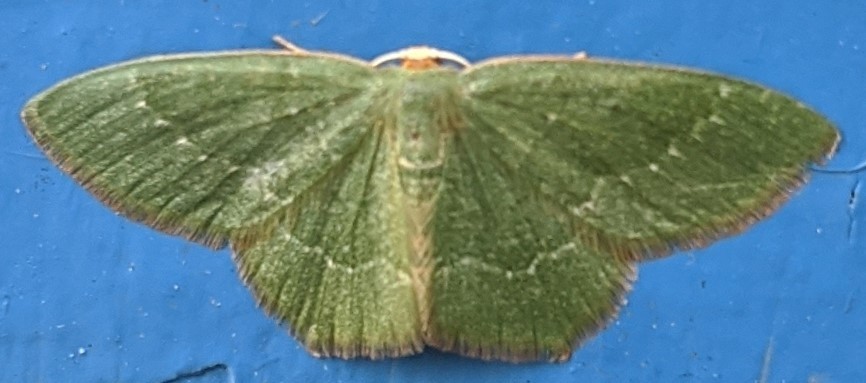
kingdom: Animalia
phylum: Arthropoda
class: Insecta
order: Lepidoptera
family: Geometridae
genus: Thalera
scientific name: Thalera pistasciaria
